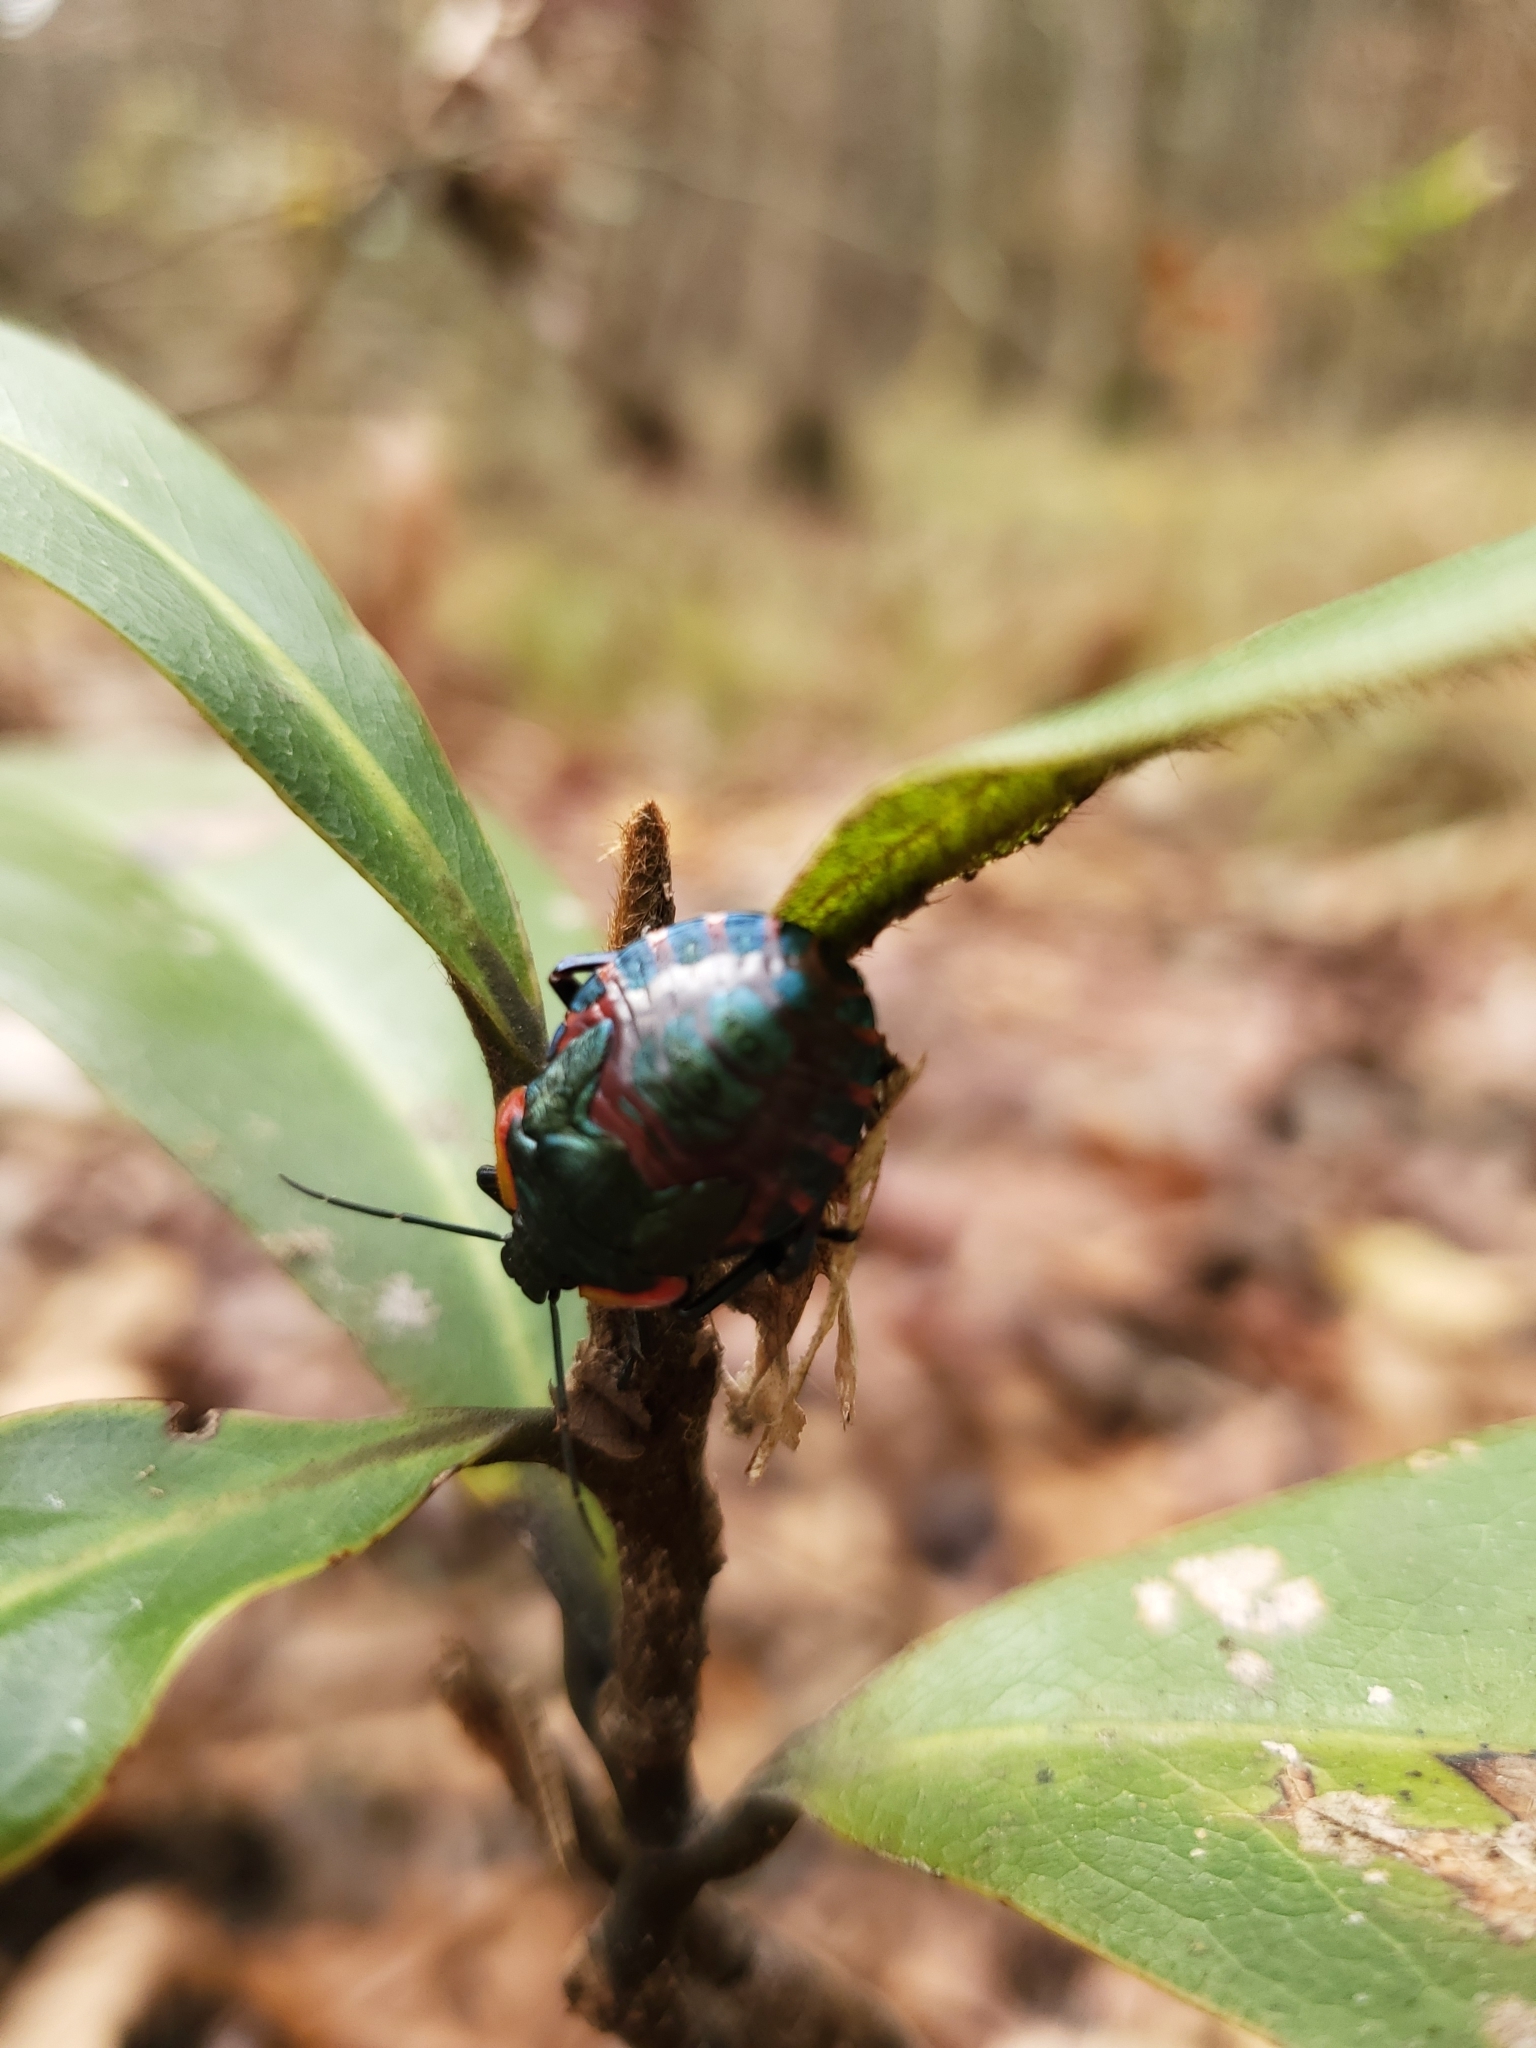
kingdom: Animalia
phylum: Arthropoda
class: Insecta
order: Hemiptera
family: Pentatomidae
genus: Alcaeorrhynchus
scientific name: Alcaeorrhynchus grandis
